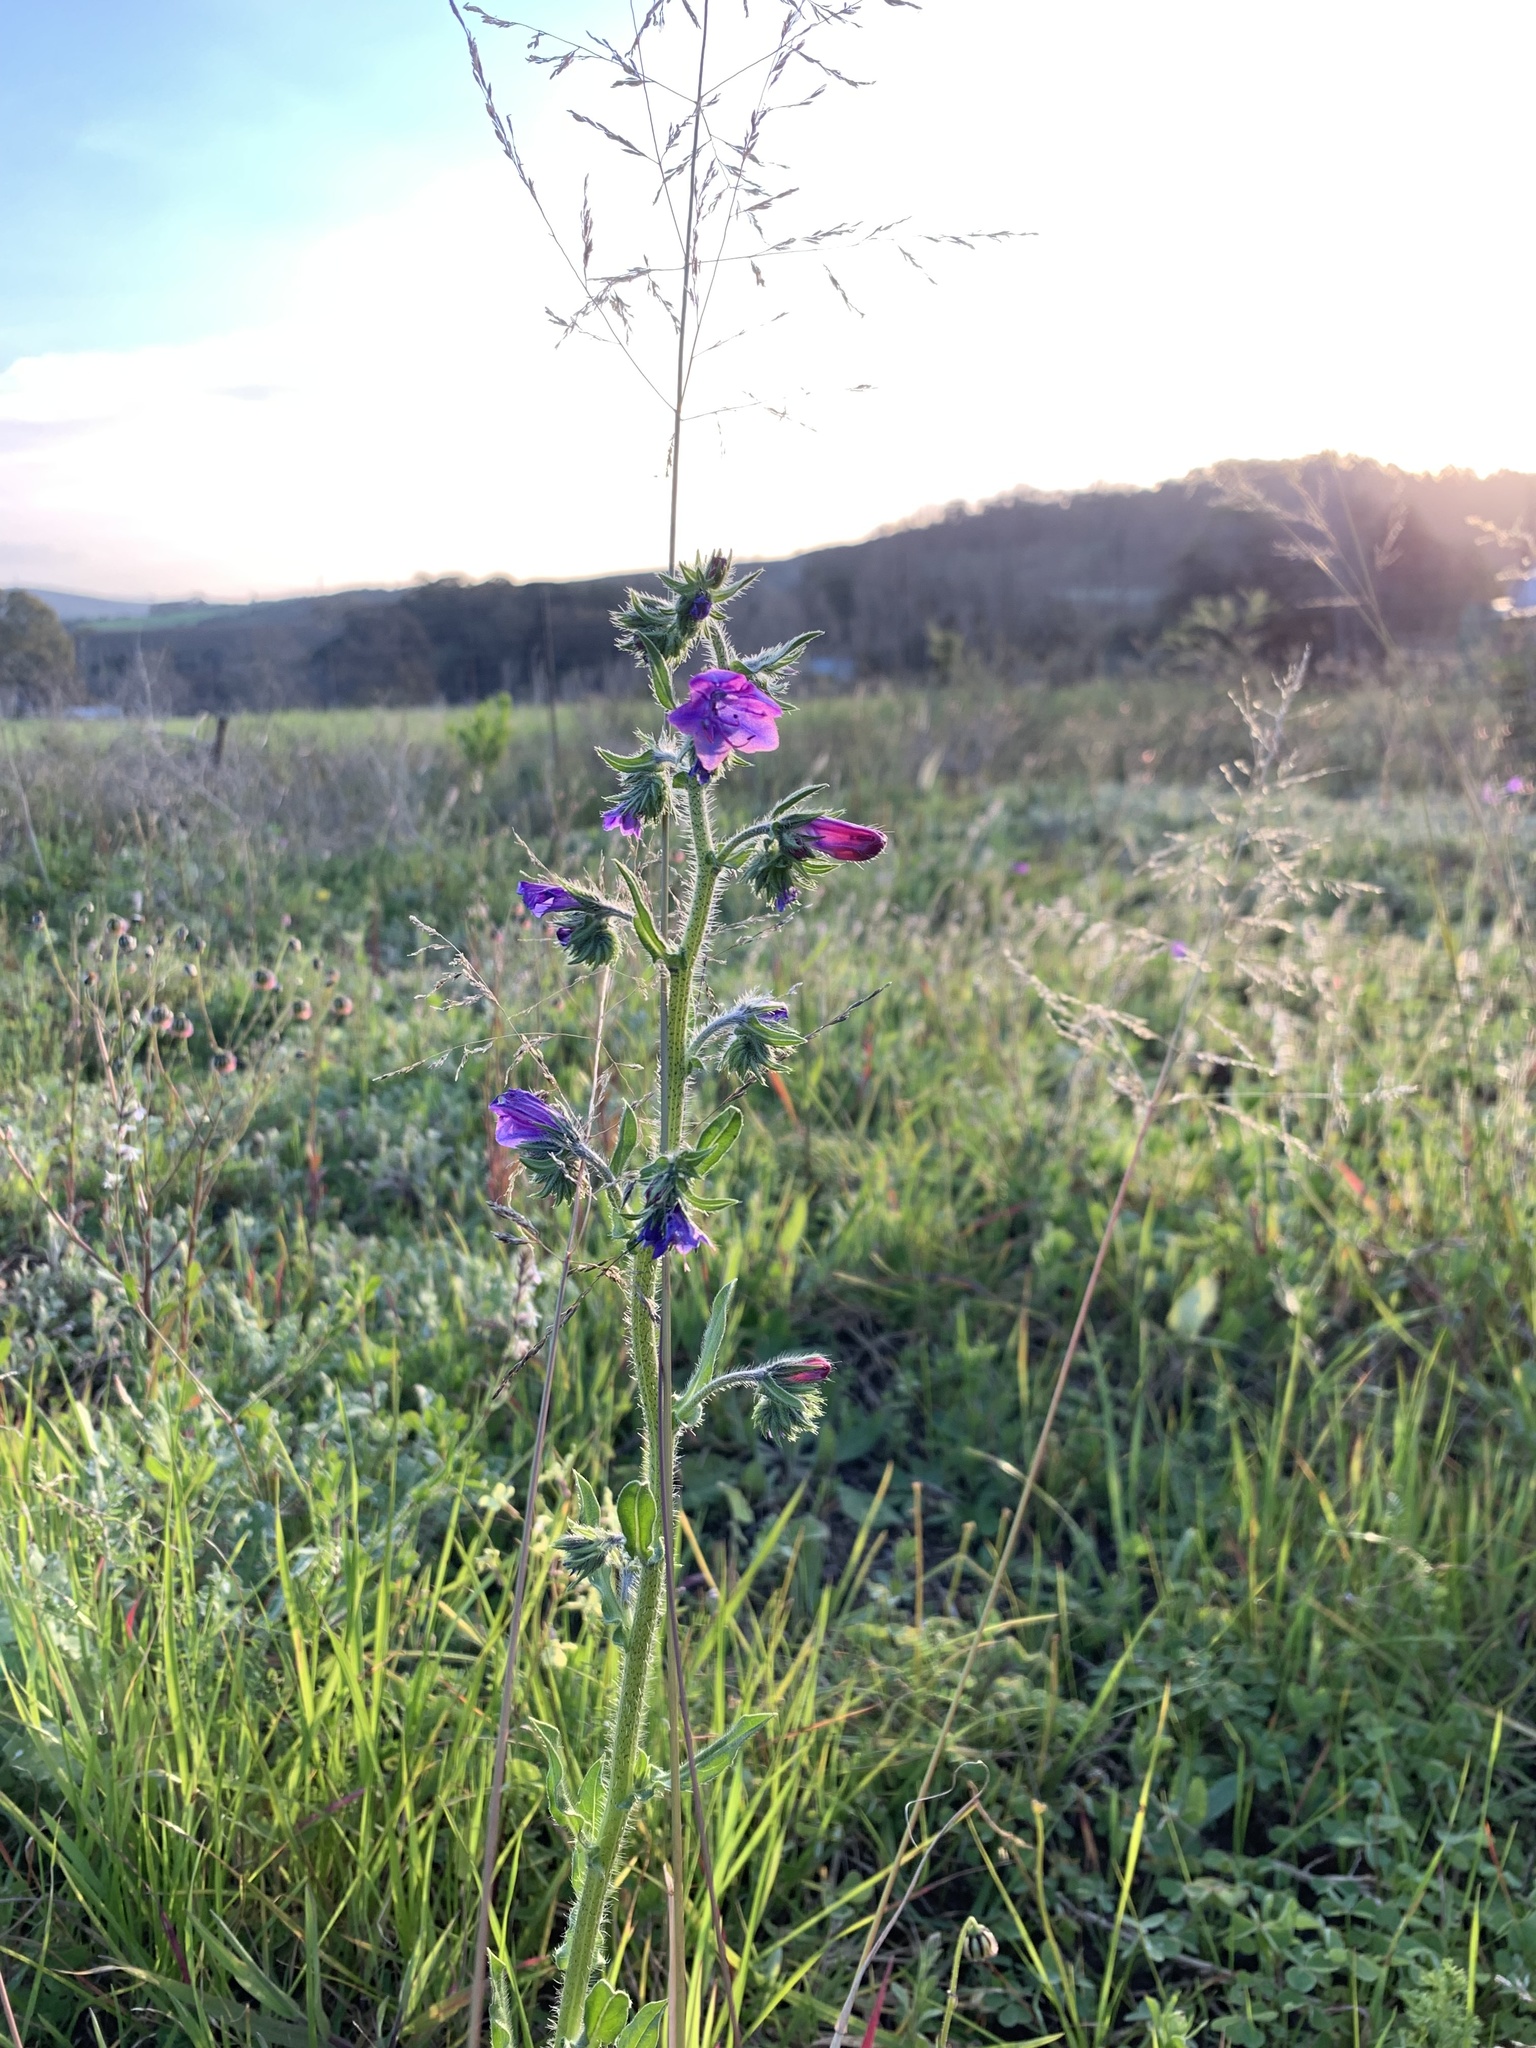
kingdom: Plantae
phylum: Tracheophyta
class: Magnoliopsida
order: Boraginales
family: Boraginaceae
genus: Echium
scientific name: Echium plantagineum
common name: Purple viper's-bugloss
